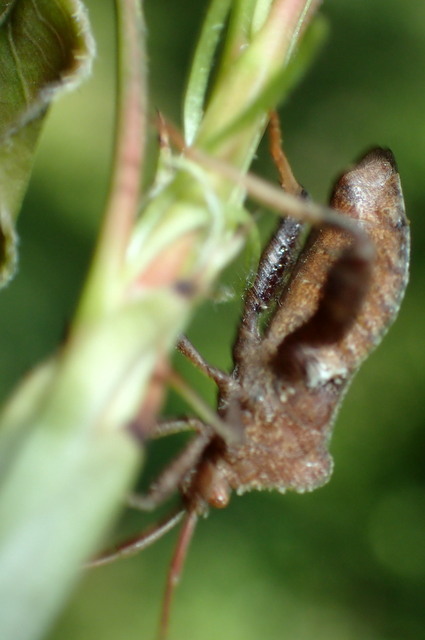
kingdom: Animalia
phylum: Arthropoda
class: Insecta
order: Hemiptera
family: Coreidae
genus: Euthochtha
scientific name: Euthochtha galeator
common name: Helmeted squash bug
